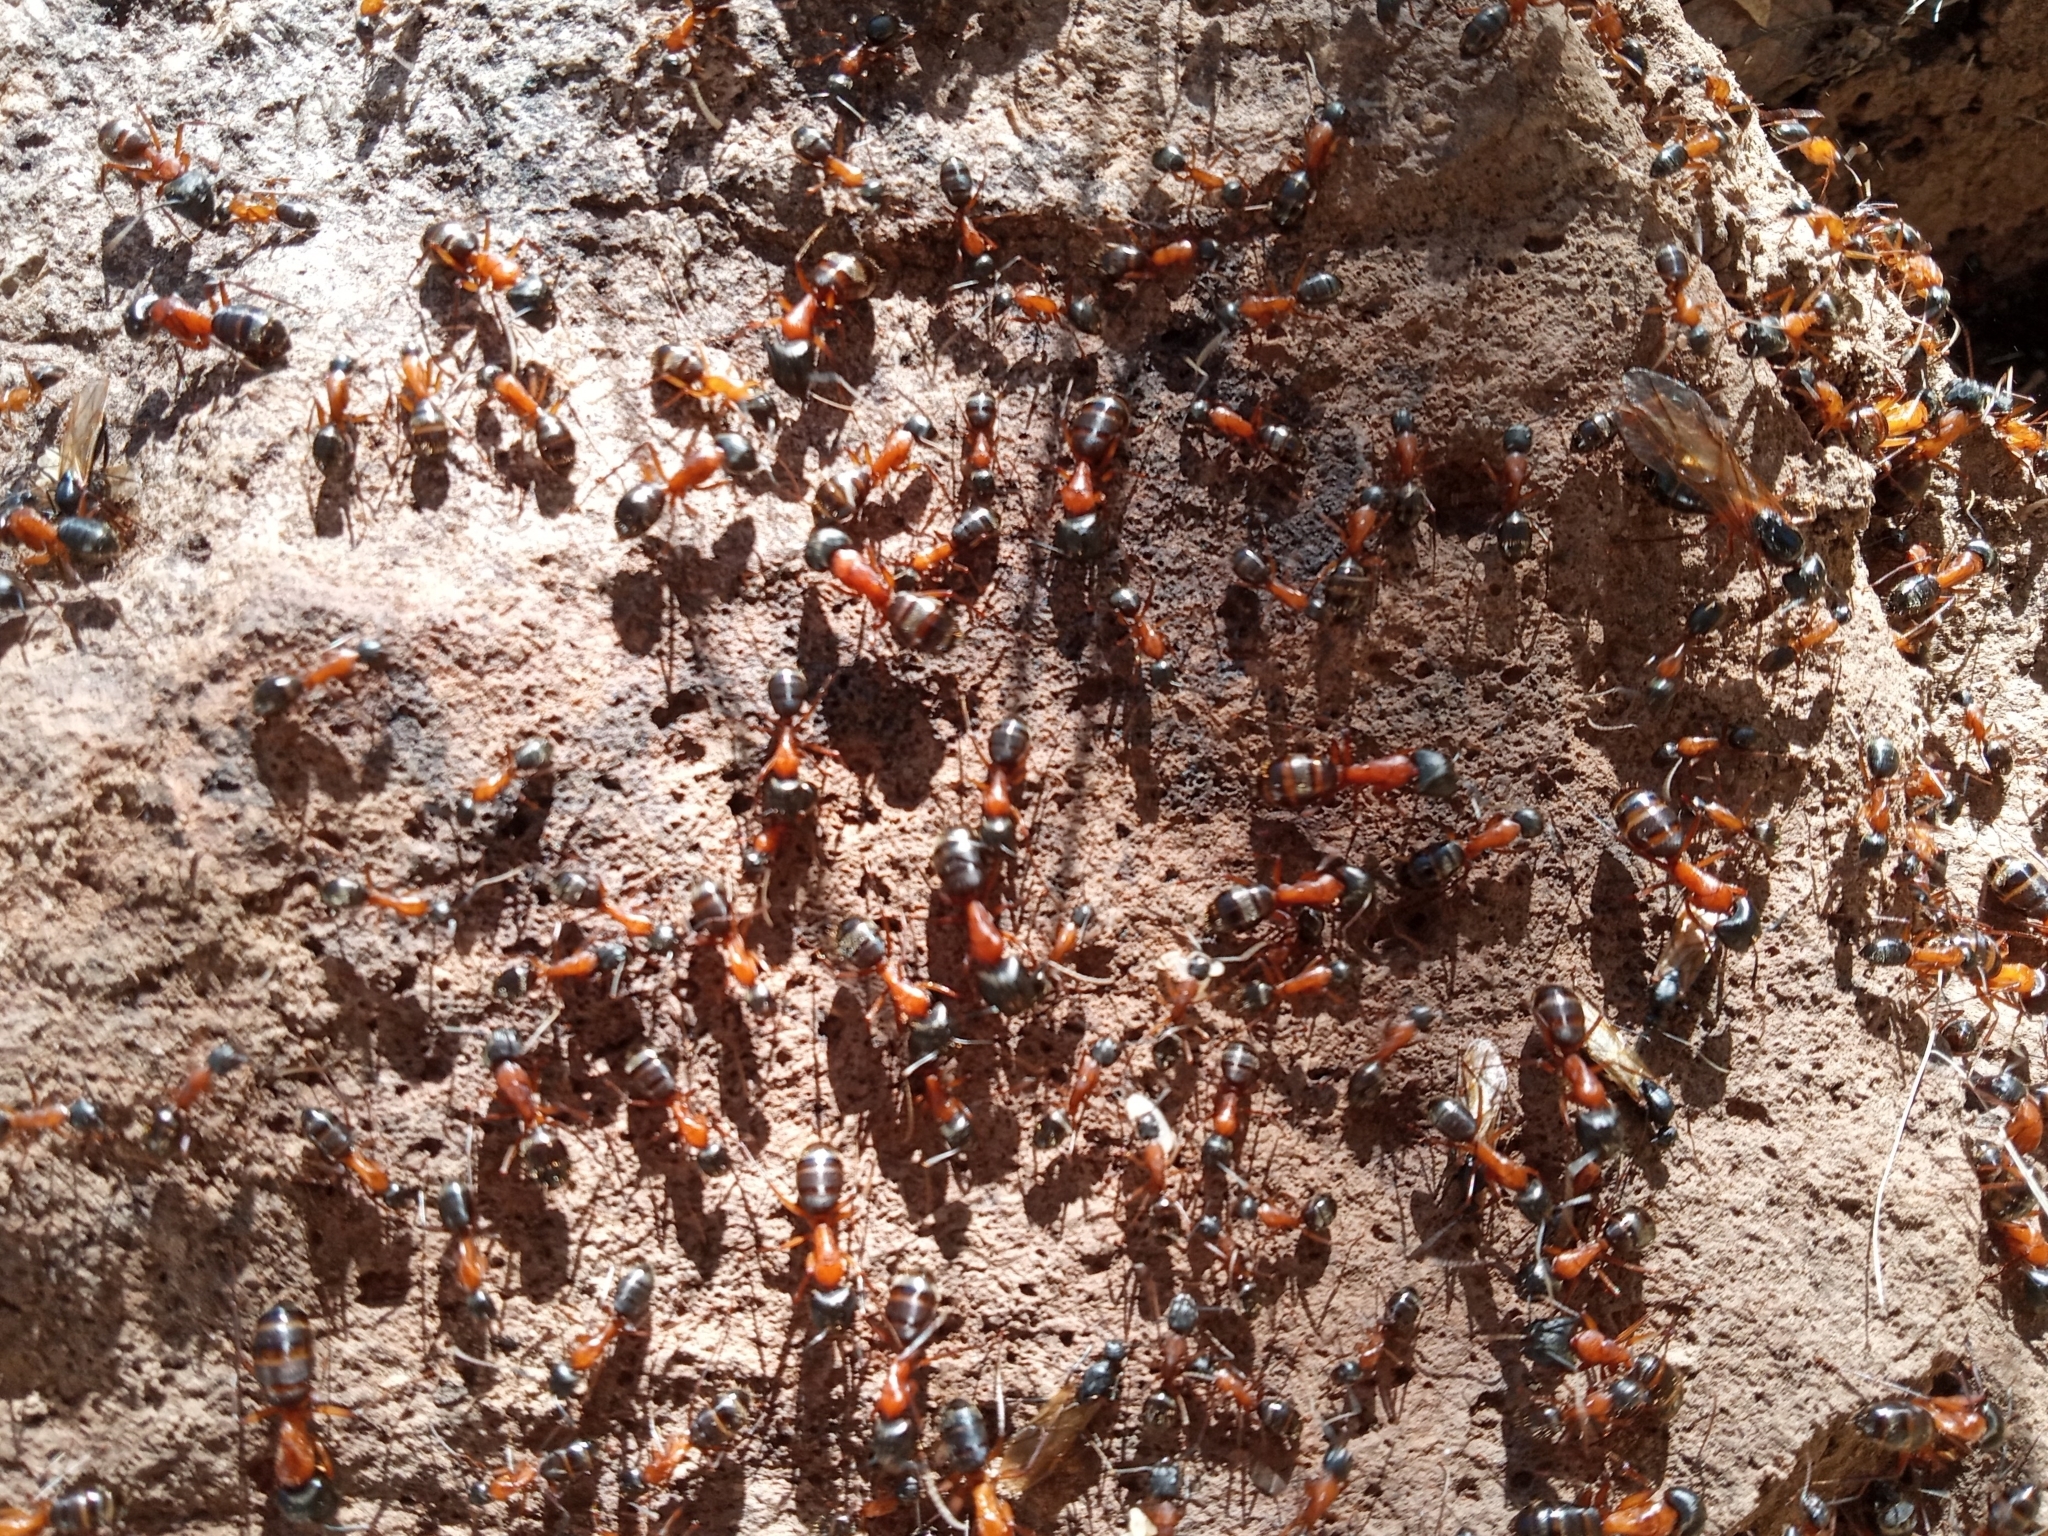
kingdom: Animalia
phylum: Arthropoda
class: Insecta
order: Hymenoptera
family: Formicidae
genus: Camponotus
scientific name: Camponotus semitestaceus
